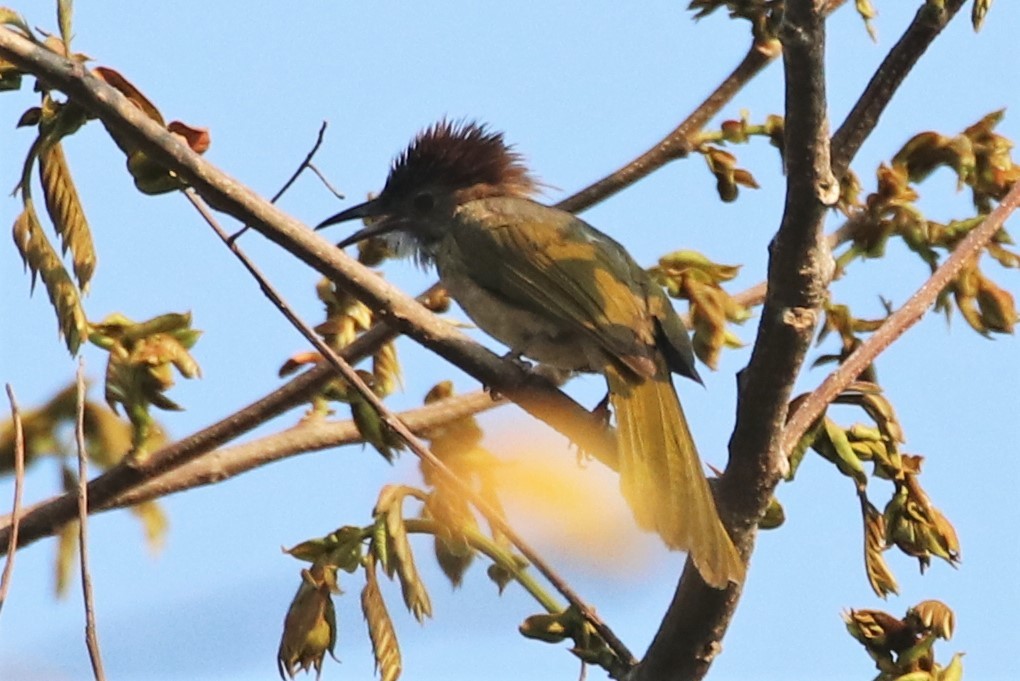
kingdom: Animalia
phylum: Chordata
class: Aves
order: Passeriformes
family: Pycnonotidae
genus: Ixos
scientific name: Ixos mcclellandii
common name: Mountain bulbul
